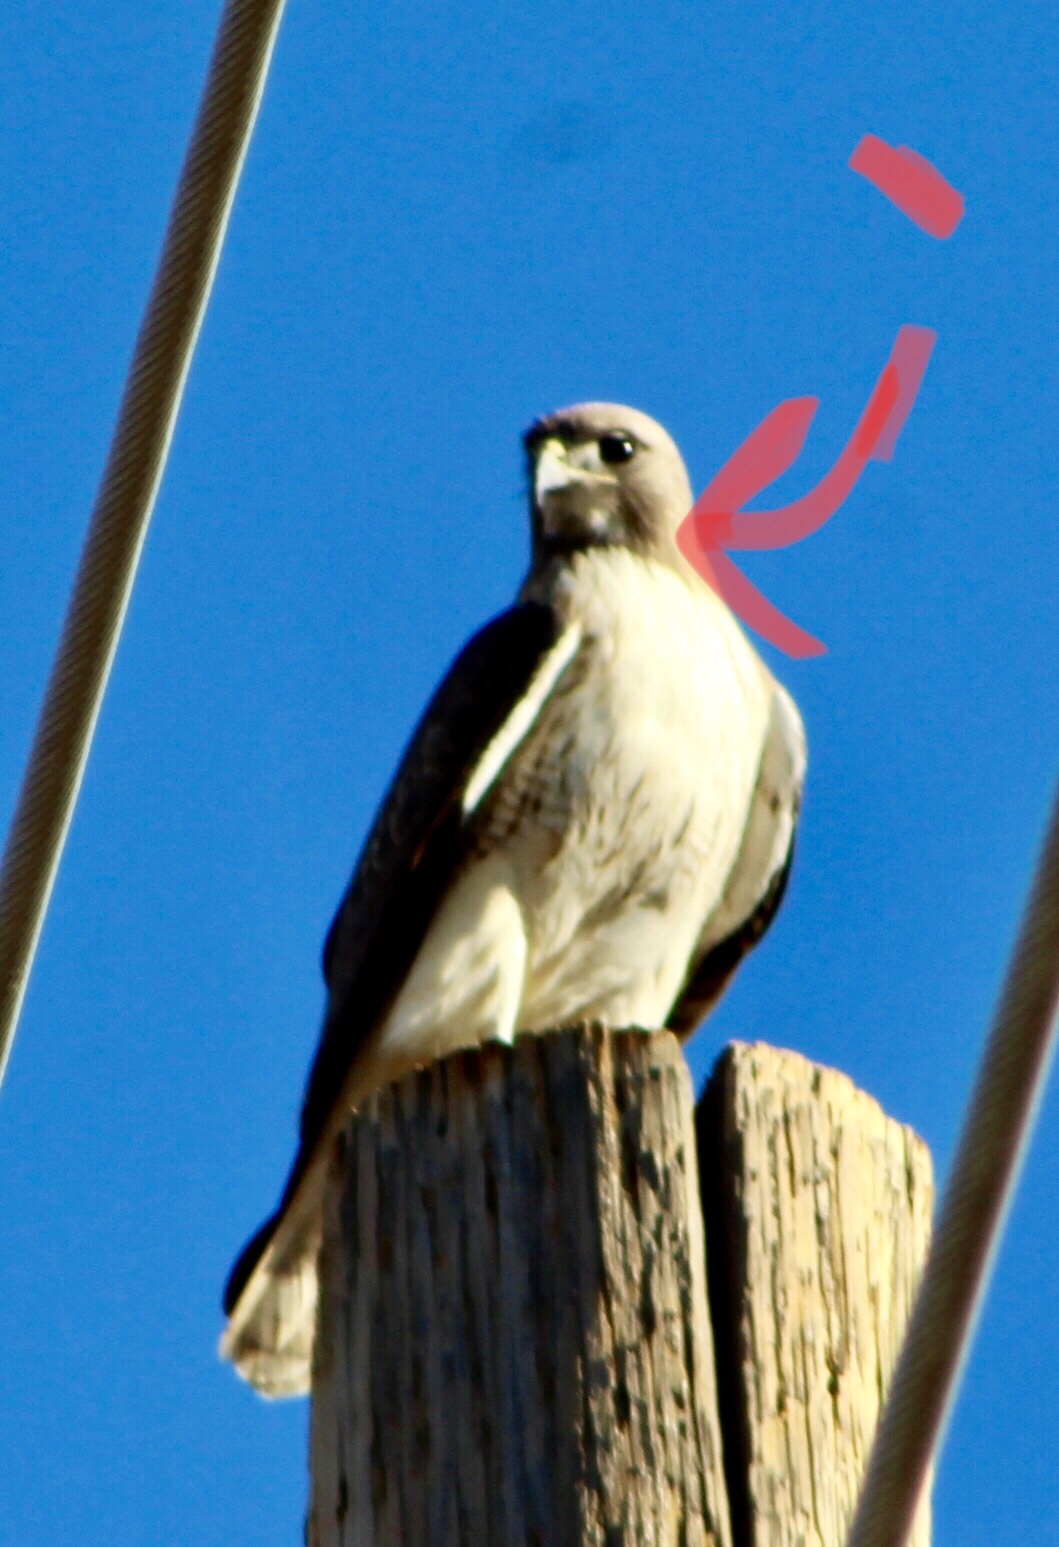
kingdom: Animalia
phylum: Chordata
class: Aves
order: Accipitriformes
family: Accipitridae
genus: Buteo
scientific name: Buteo jamaicensis
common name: Red-tailed hawk
